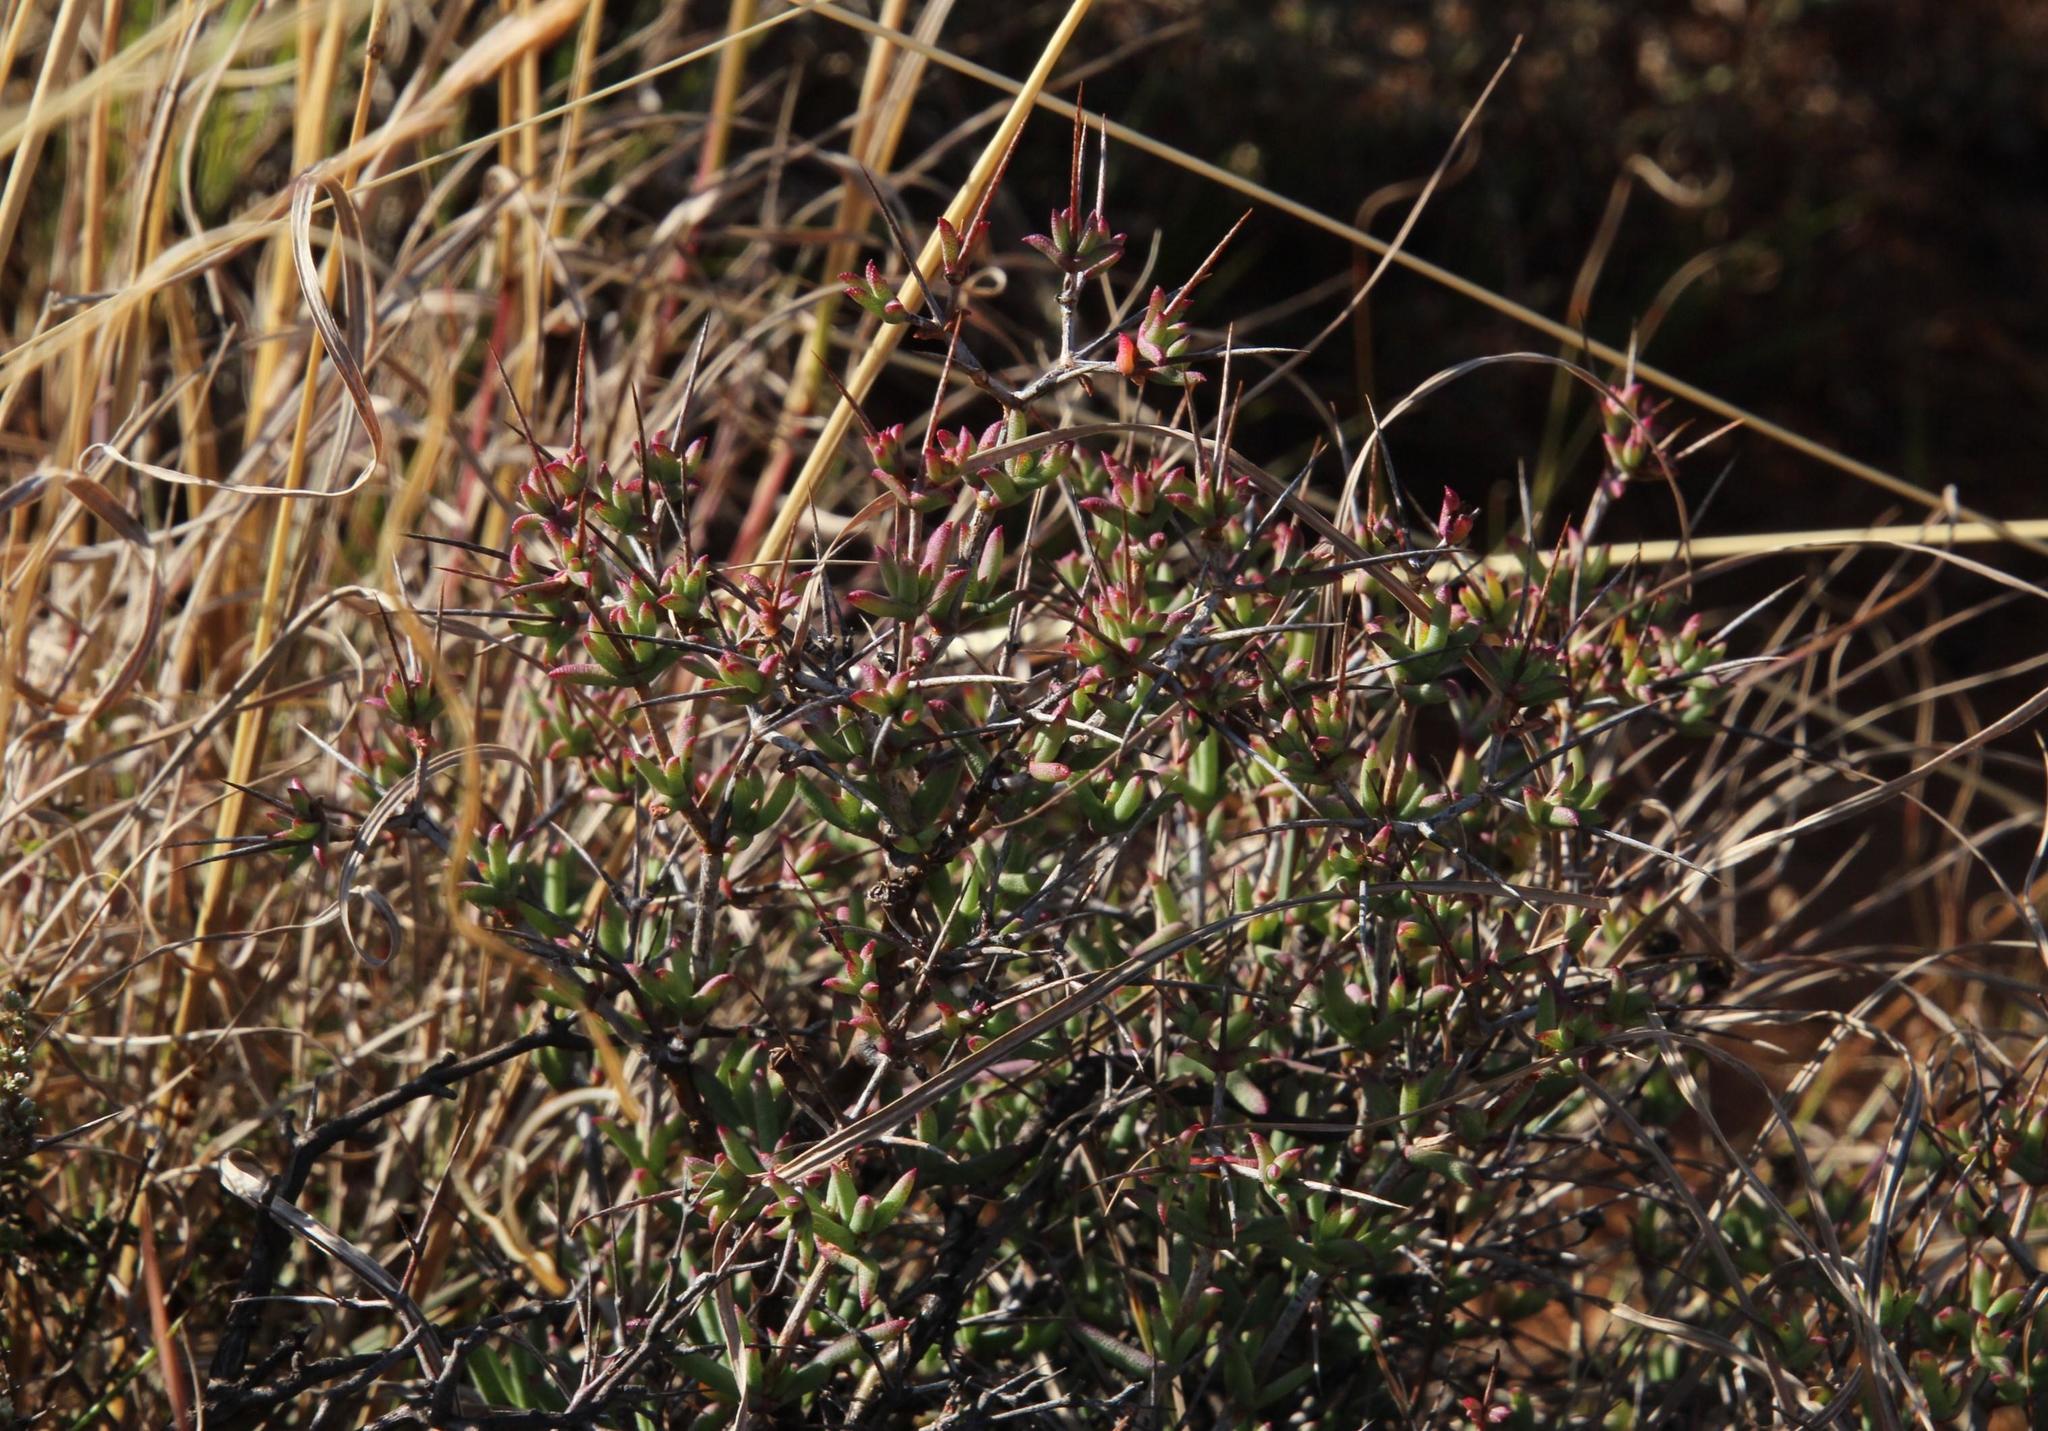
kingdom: Plantae
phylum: Tracheophyta
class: Magnoliopsida
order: Caryophyllales
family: Aizoaceae
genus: Ruschia
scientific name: Ruschia intricata
